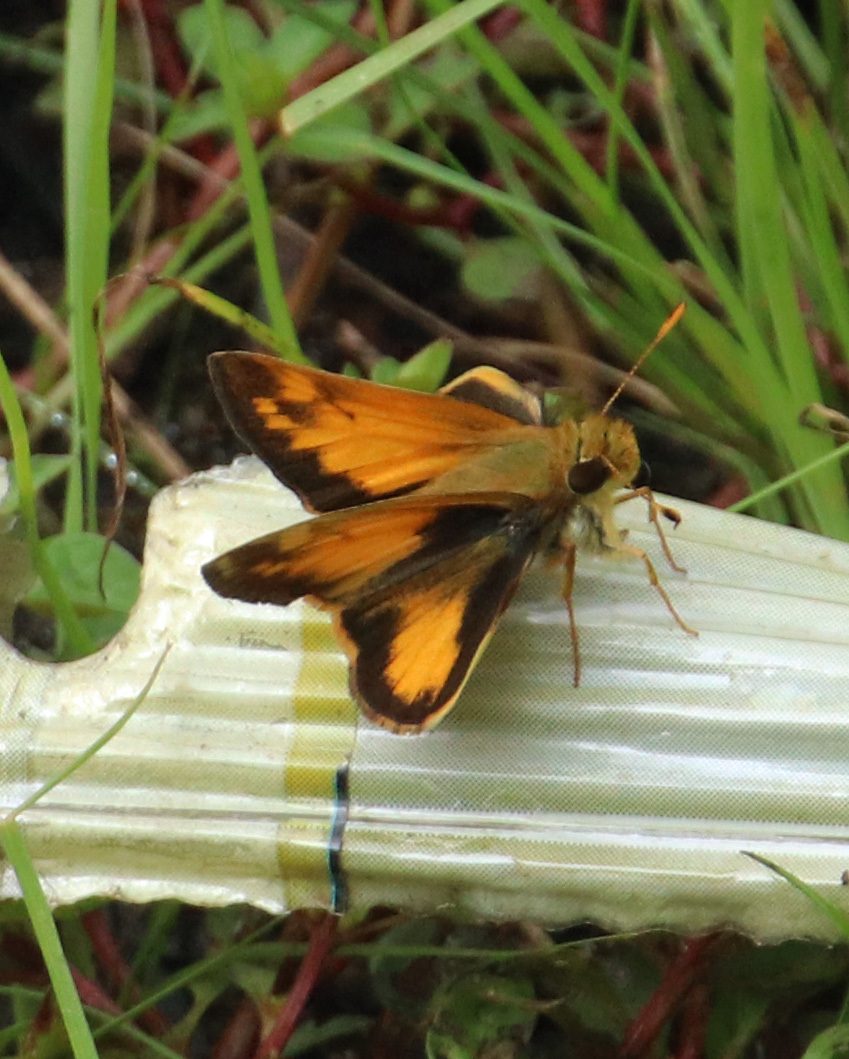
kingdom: Animalia
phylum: Arthropoda
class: Insecta
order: Lepidoptera
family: Hesperiidae
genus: Lon
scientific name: Lon zabulon
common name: Zabulon skipper
